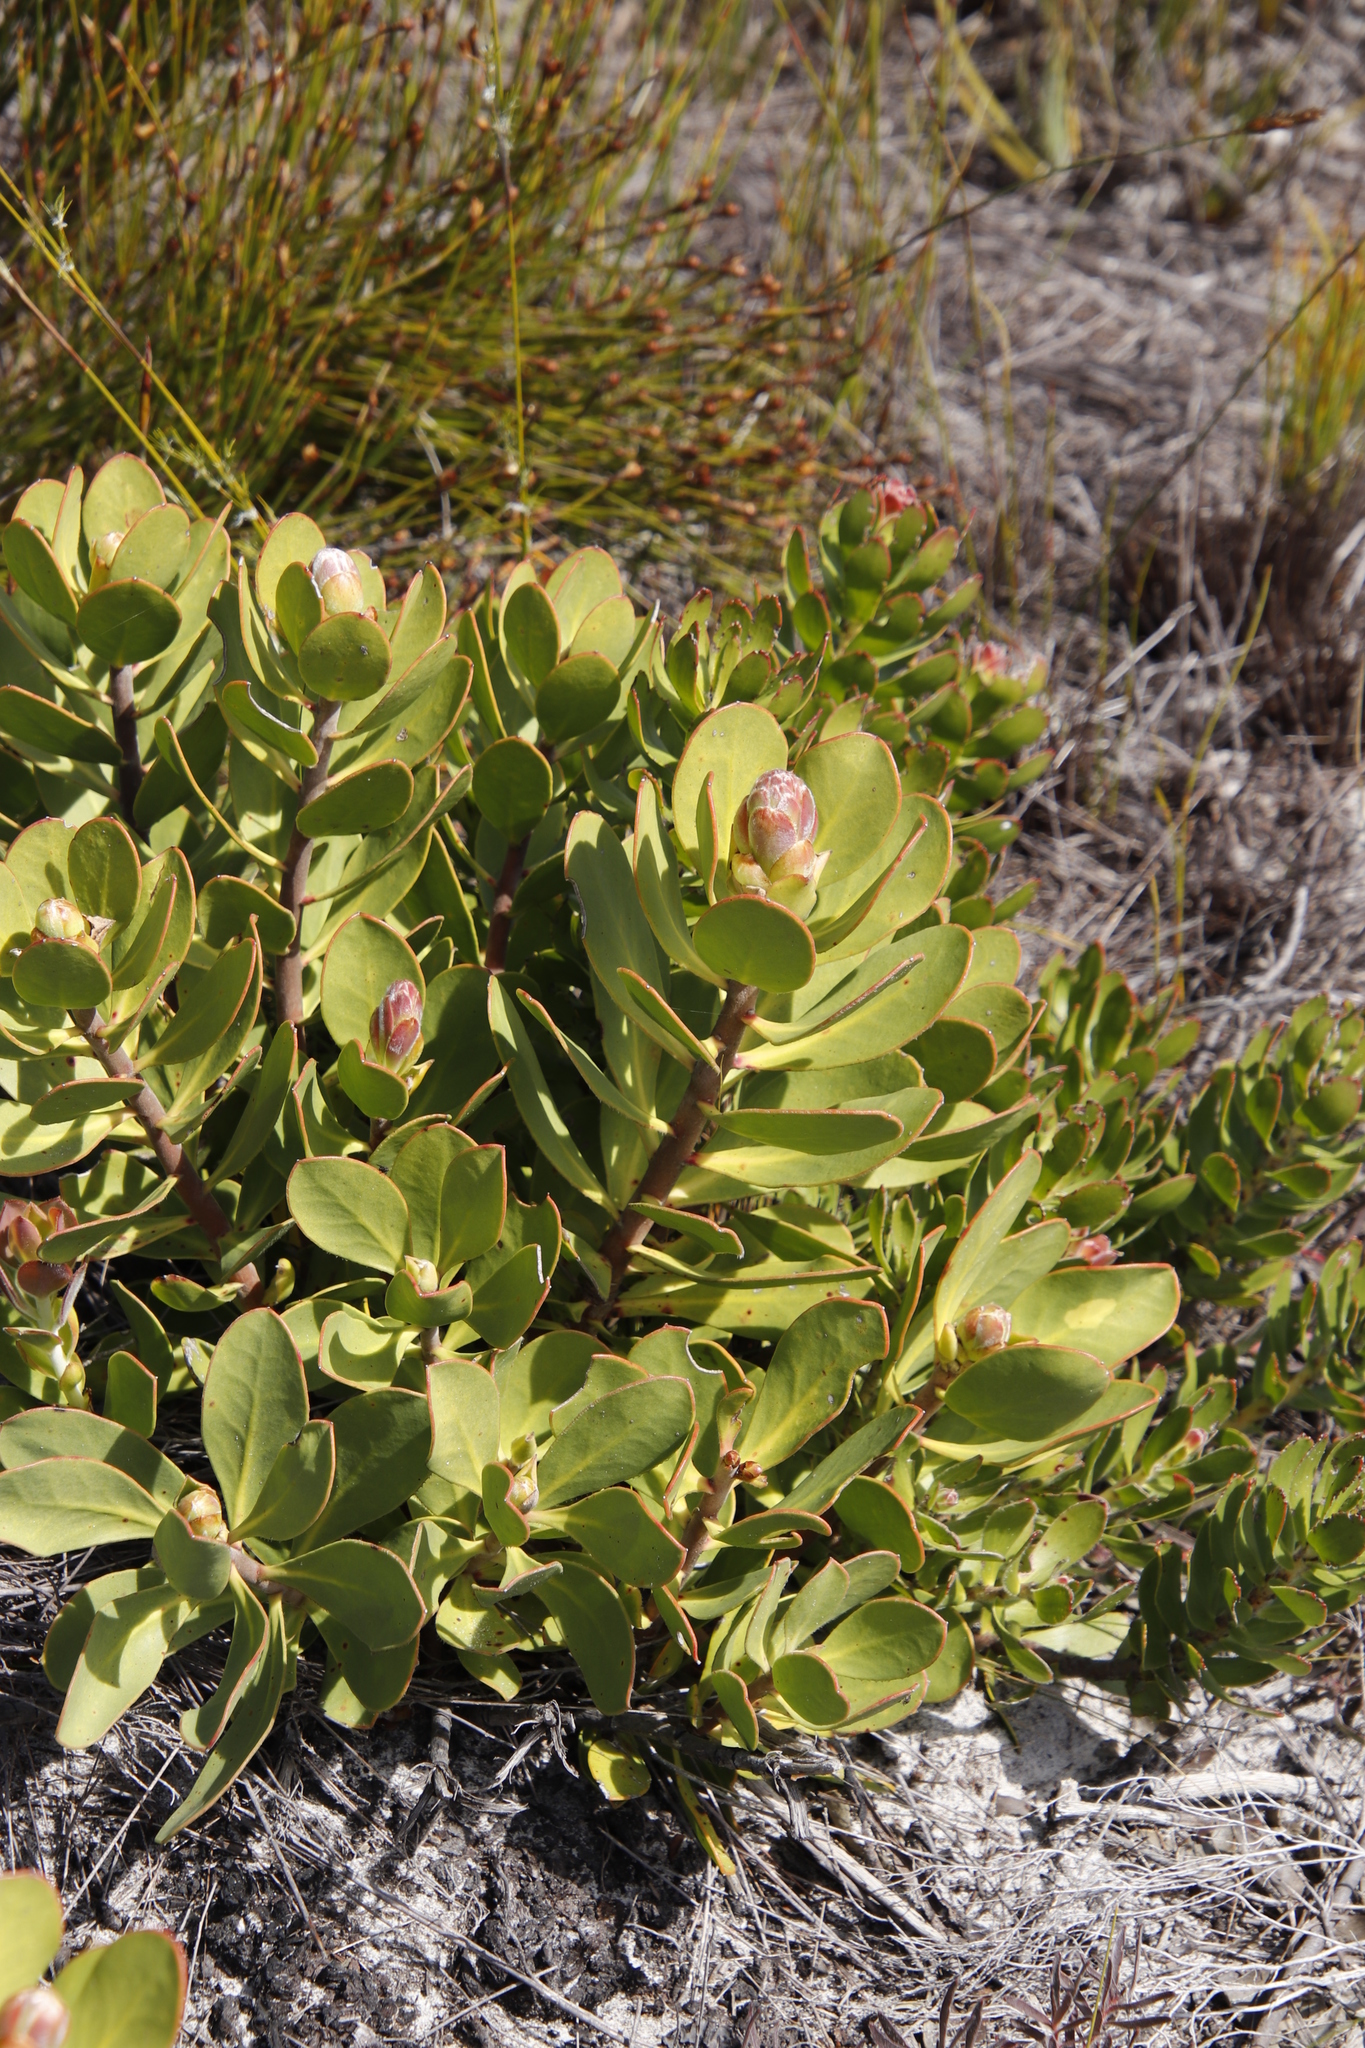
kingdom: Plantae
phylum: Tracheophyta
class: Magnoliopsida
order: Proteales
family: Proteaceae
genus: Protea
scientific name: Protea speciosa
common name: Brown-beard sugarbush
